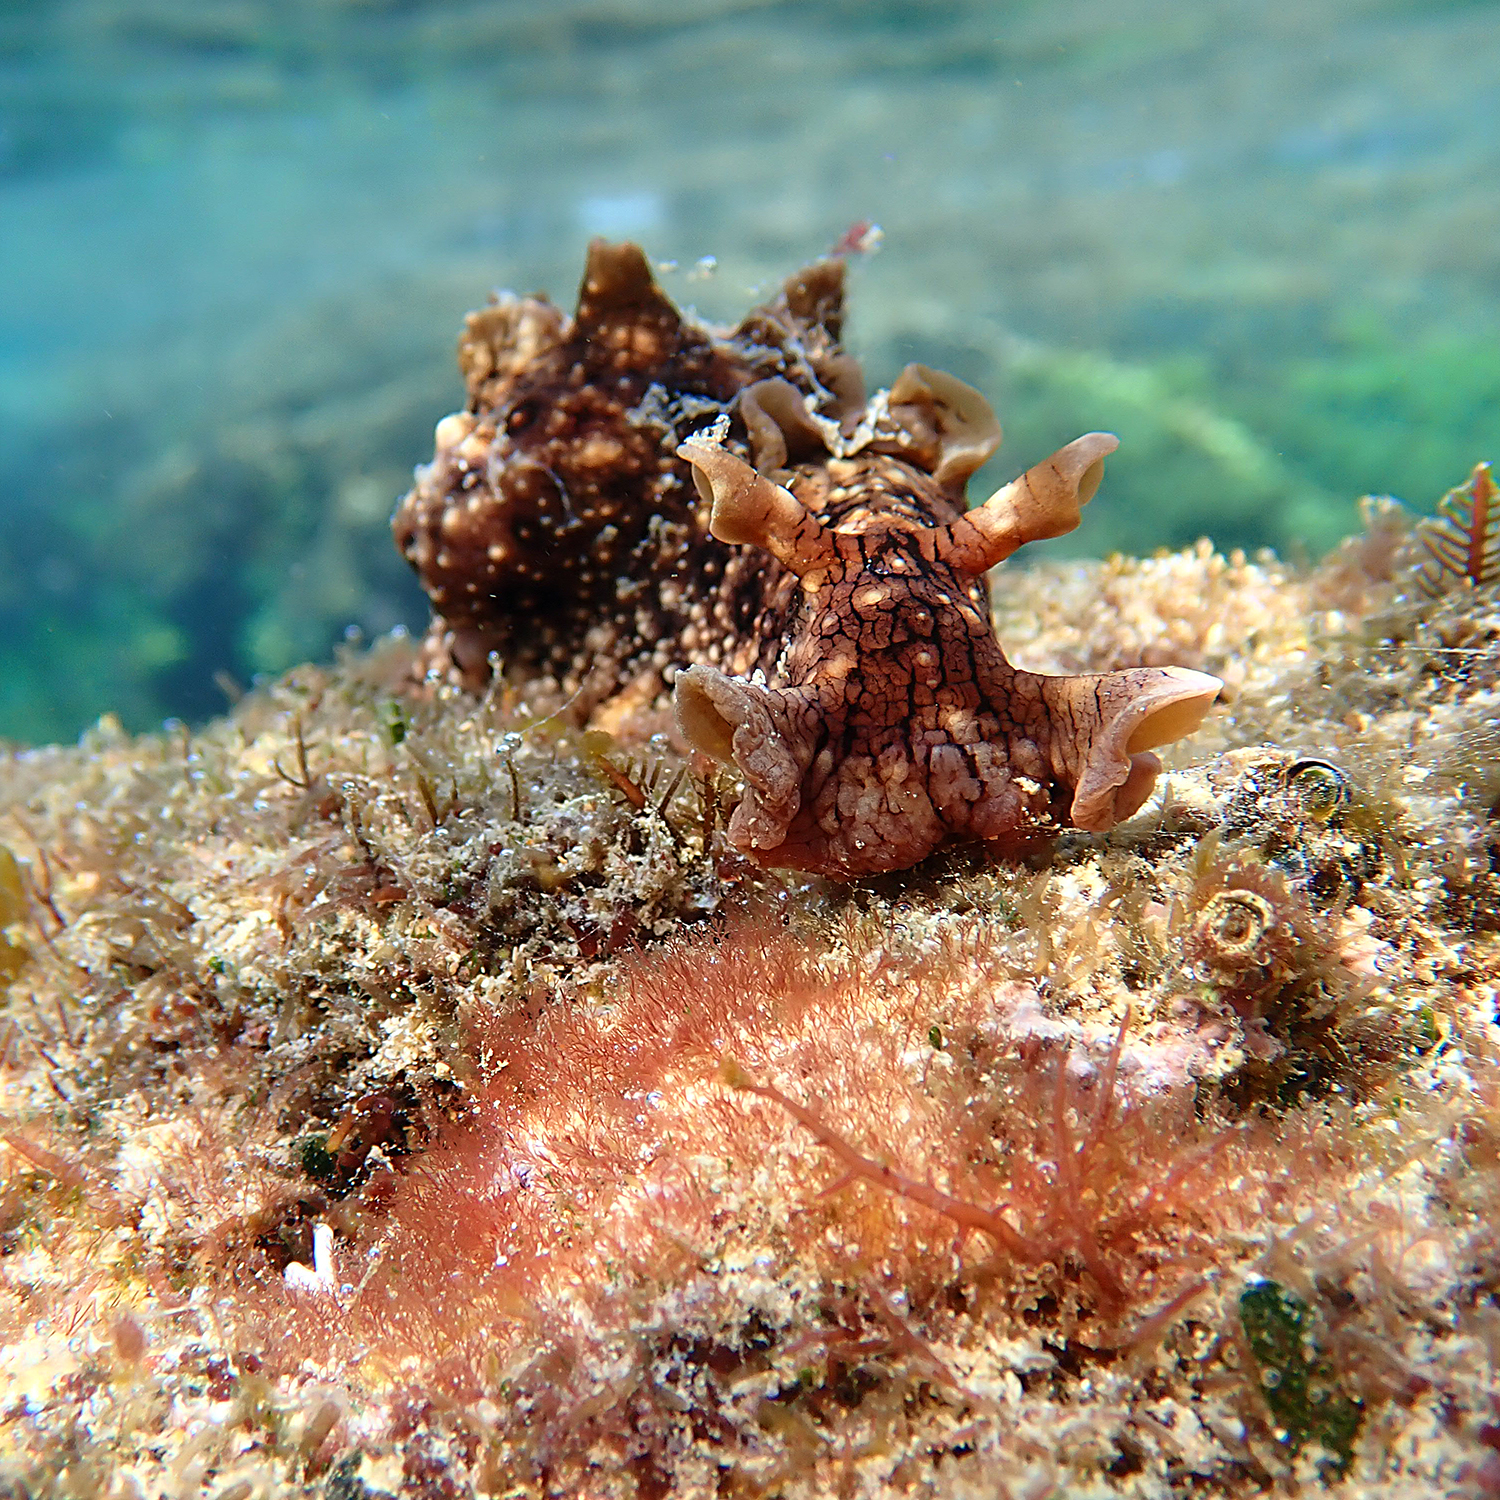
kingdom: Animalia
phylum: Mollusca
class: Gastropoda
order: Aplysiida
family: Aplysiidae
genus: Aplysia
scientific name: Aplysia argus
